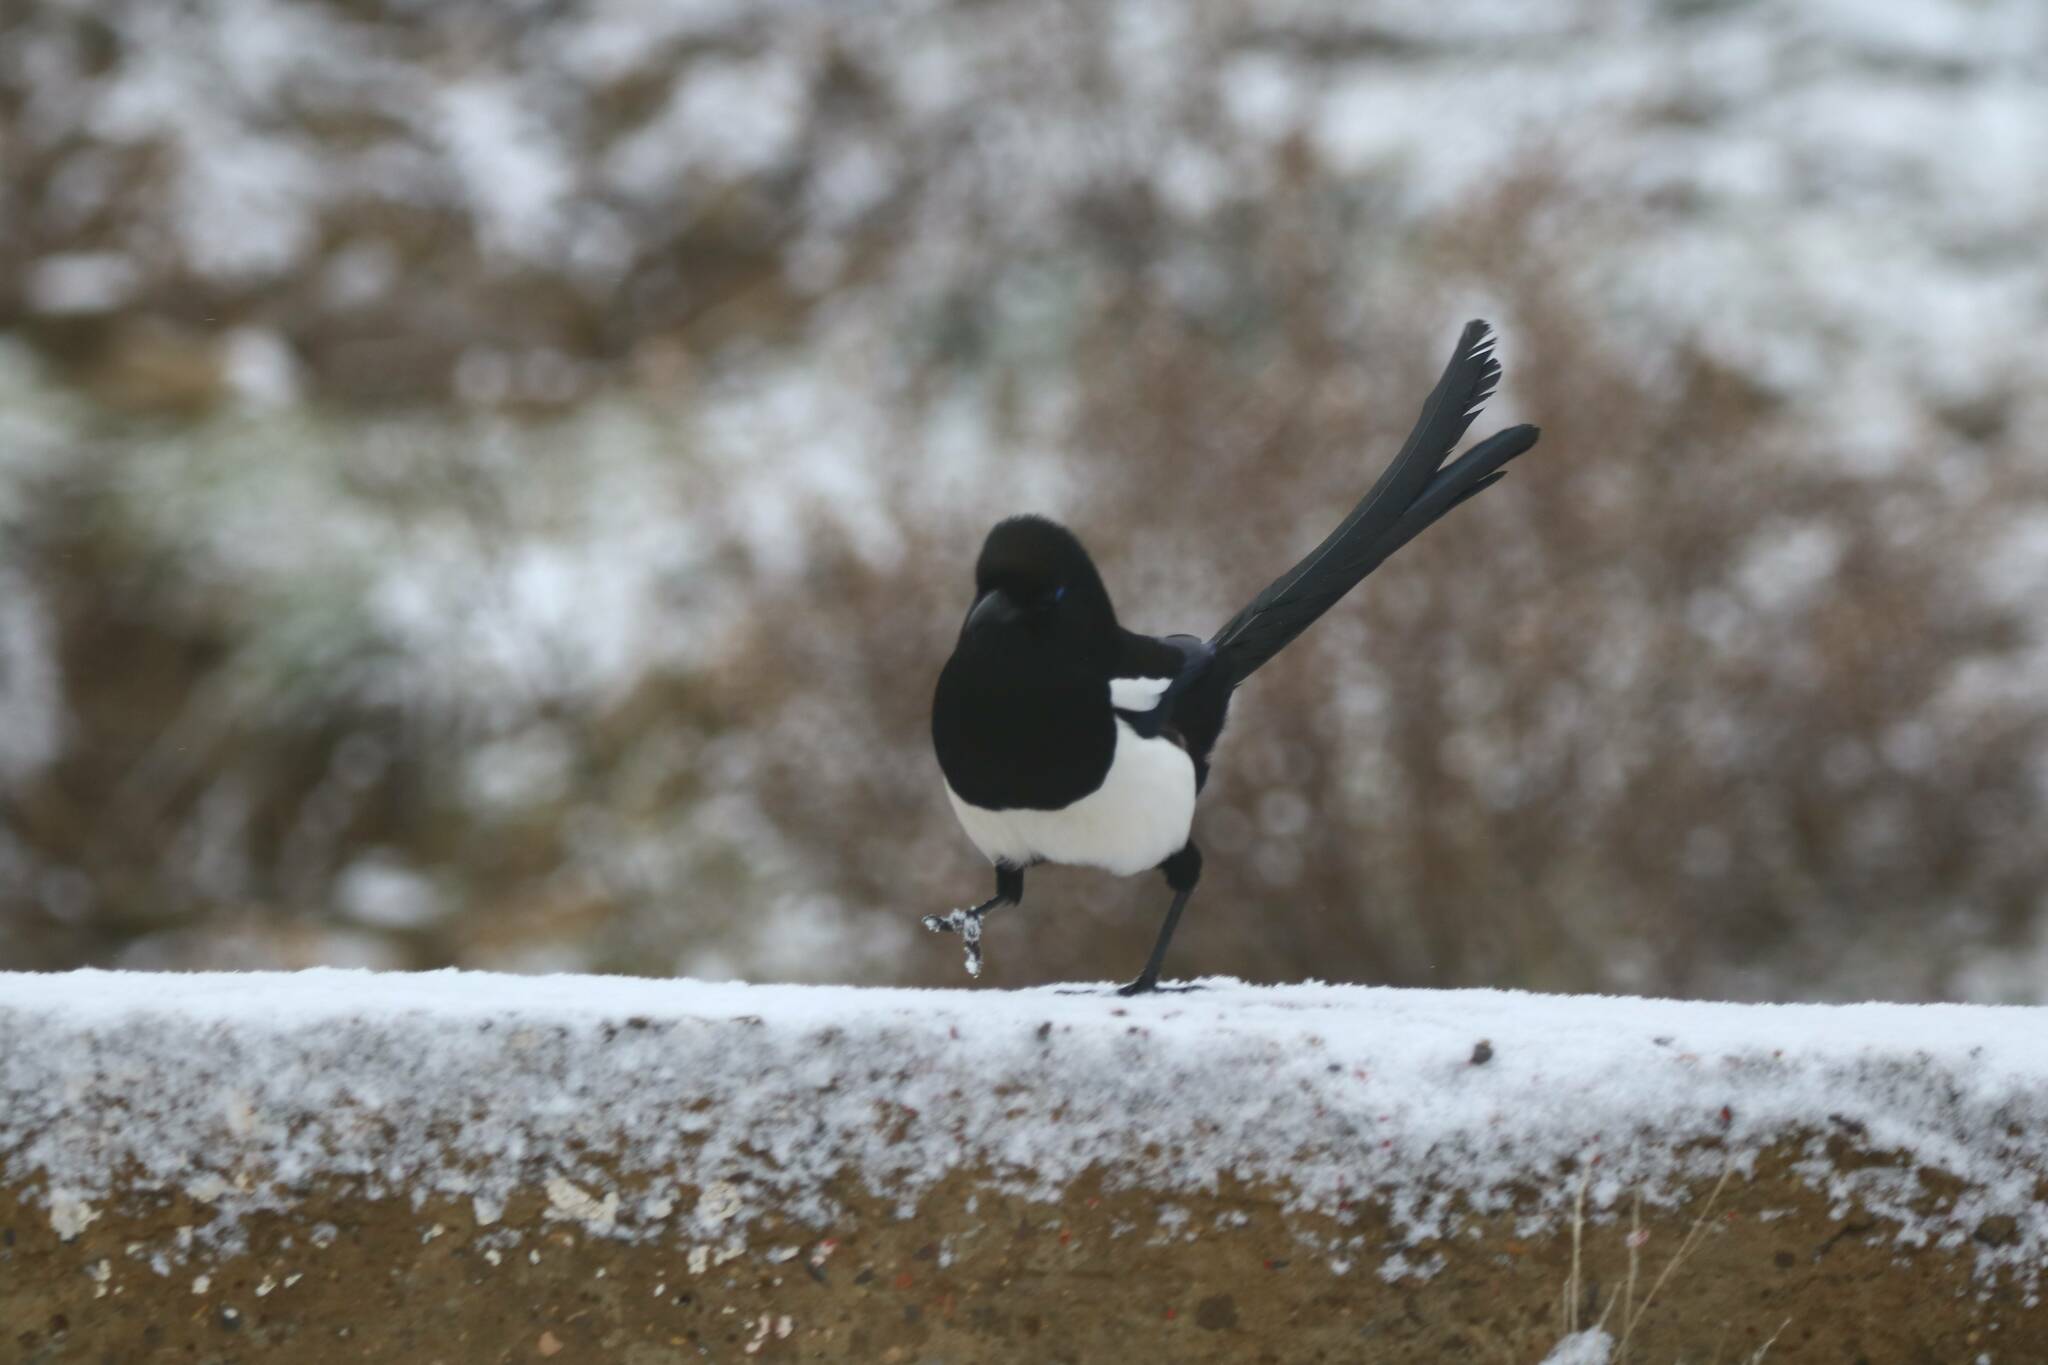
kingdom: Animalia
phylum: Chordata
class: Aves
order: Passeriformes
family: Corvidae
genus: Pica
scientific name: Pica mauritanica
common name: Maghreb magpie
